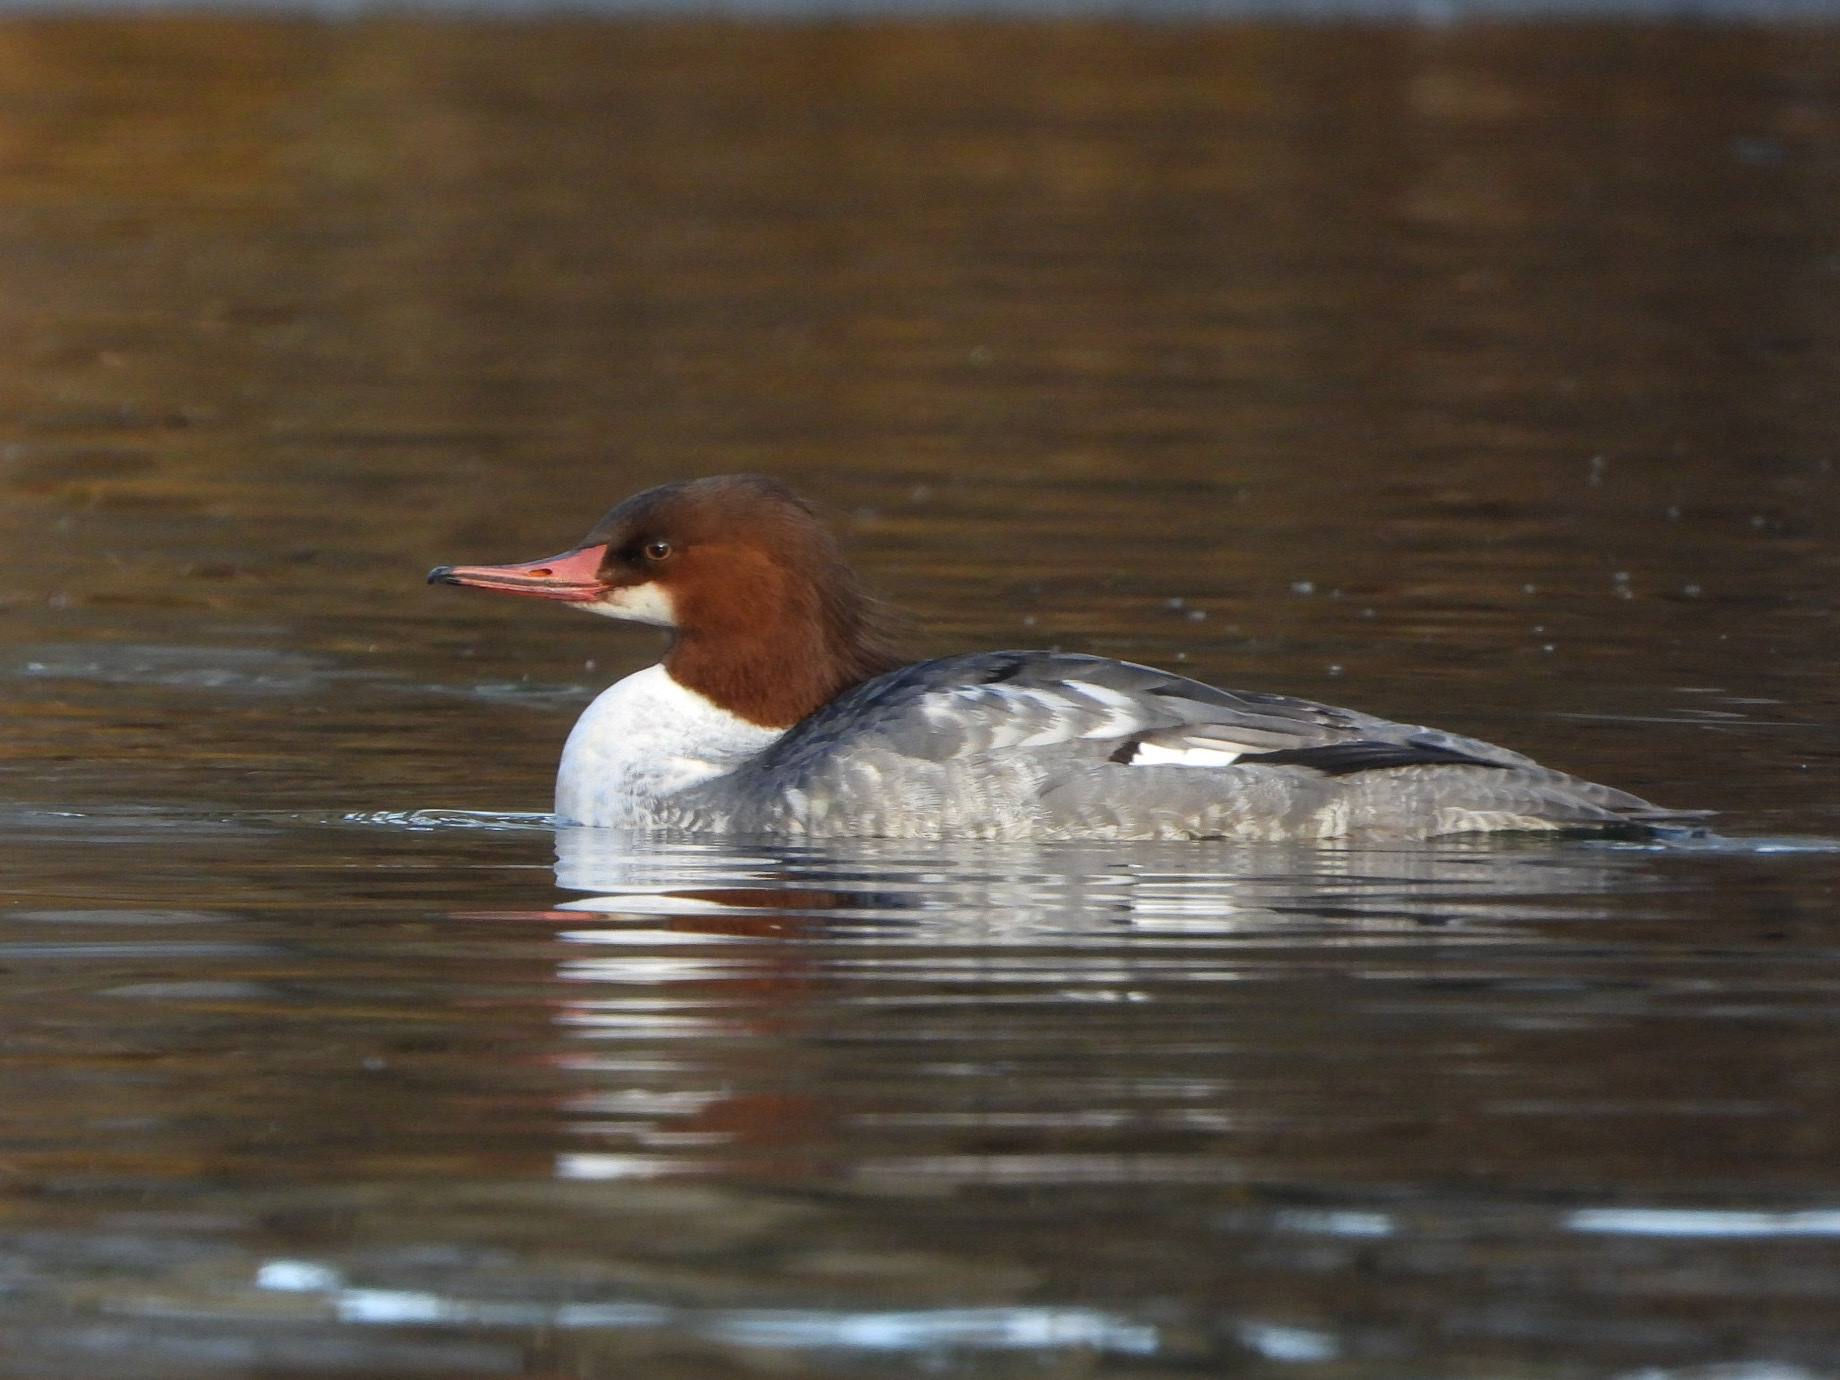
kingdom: Animalia
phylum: Chordata
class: Aves
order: Anseriformes
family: Anatidae
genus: Mergus
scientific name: Mergus merganser
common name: Common merganser
